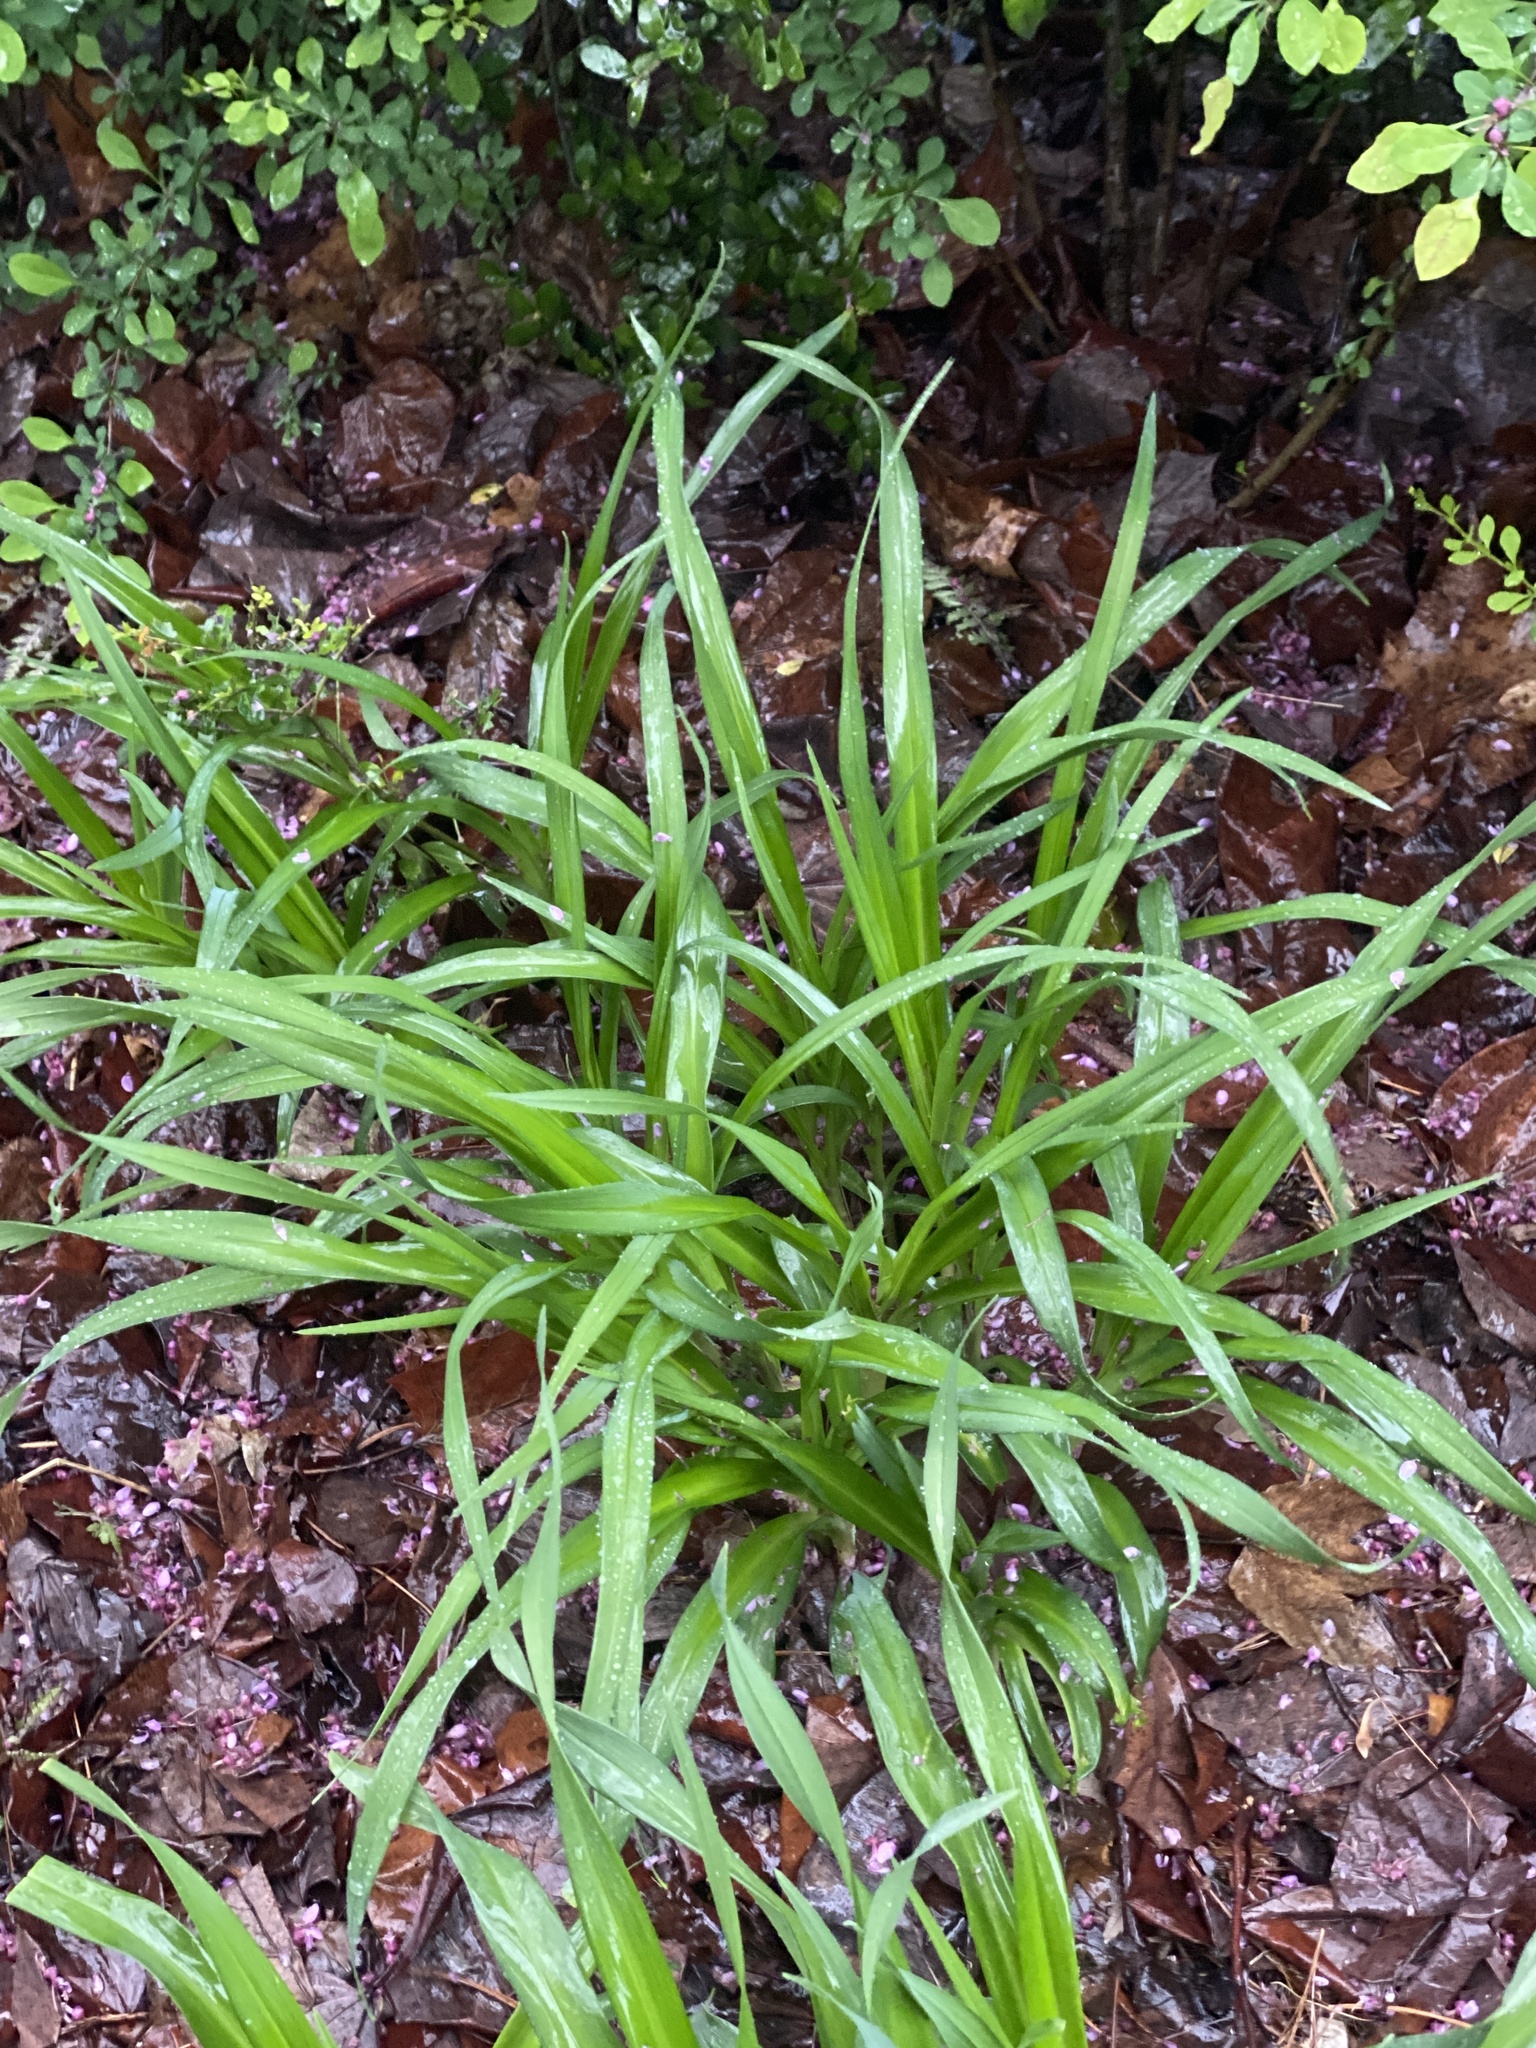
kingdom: Plantae
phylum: Tracheophyta
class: Liliopsida
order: Asparagales
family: Asphodelaceae
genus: Hemerocallis
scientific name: Hemerocallis fulva
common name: Orange day-lily
